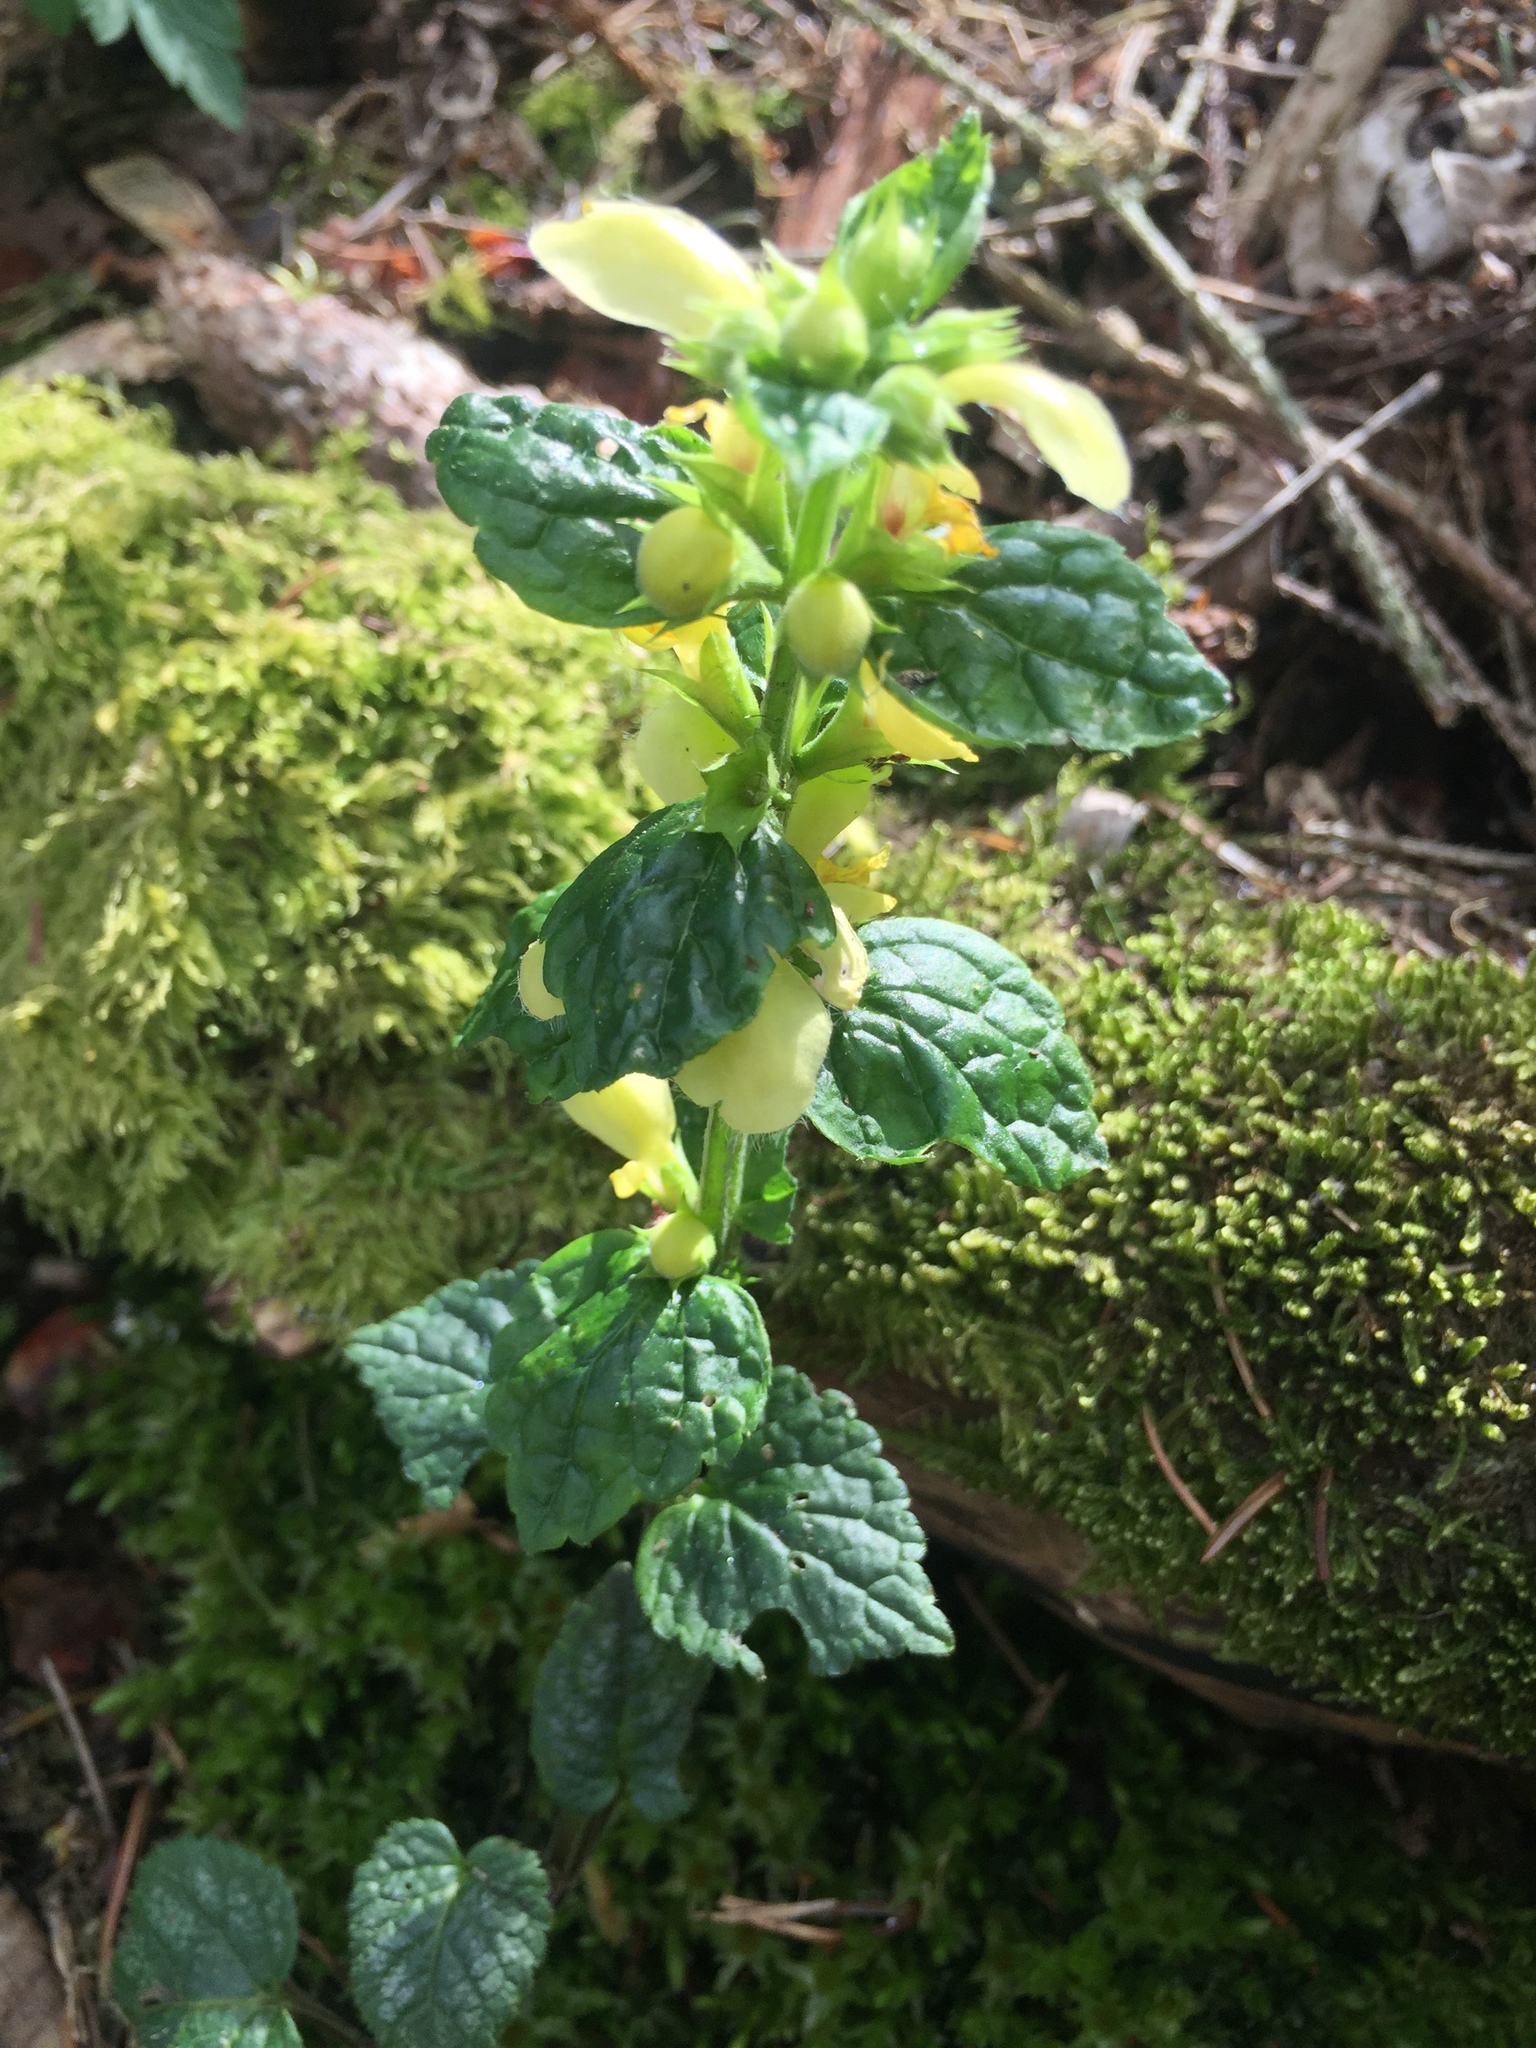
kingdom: Plantae
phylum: Tracheophyta
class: Magnoliopsida
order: Lamiales
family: Lamiaceae
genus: Lamium
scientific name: Lamium galeobdolon
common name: Yellow archangel
